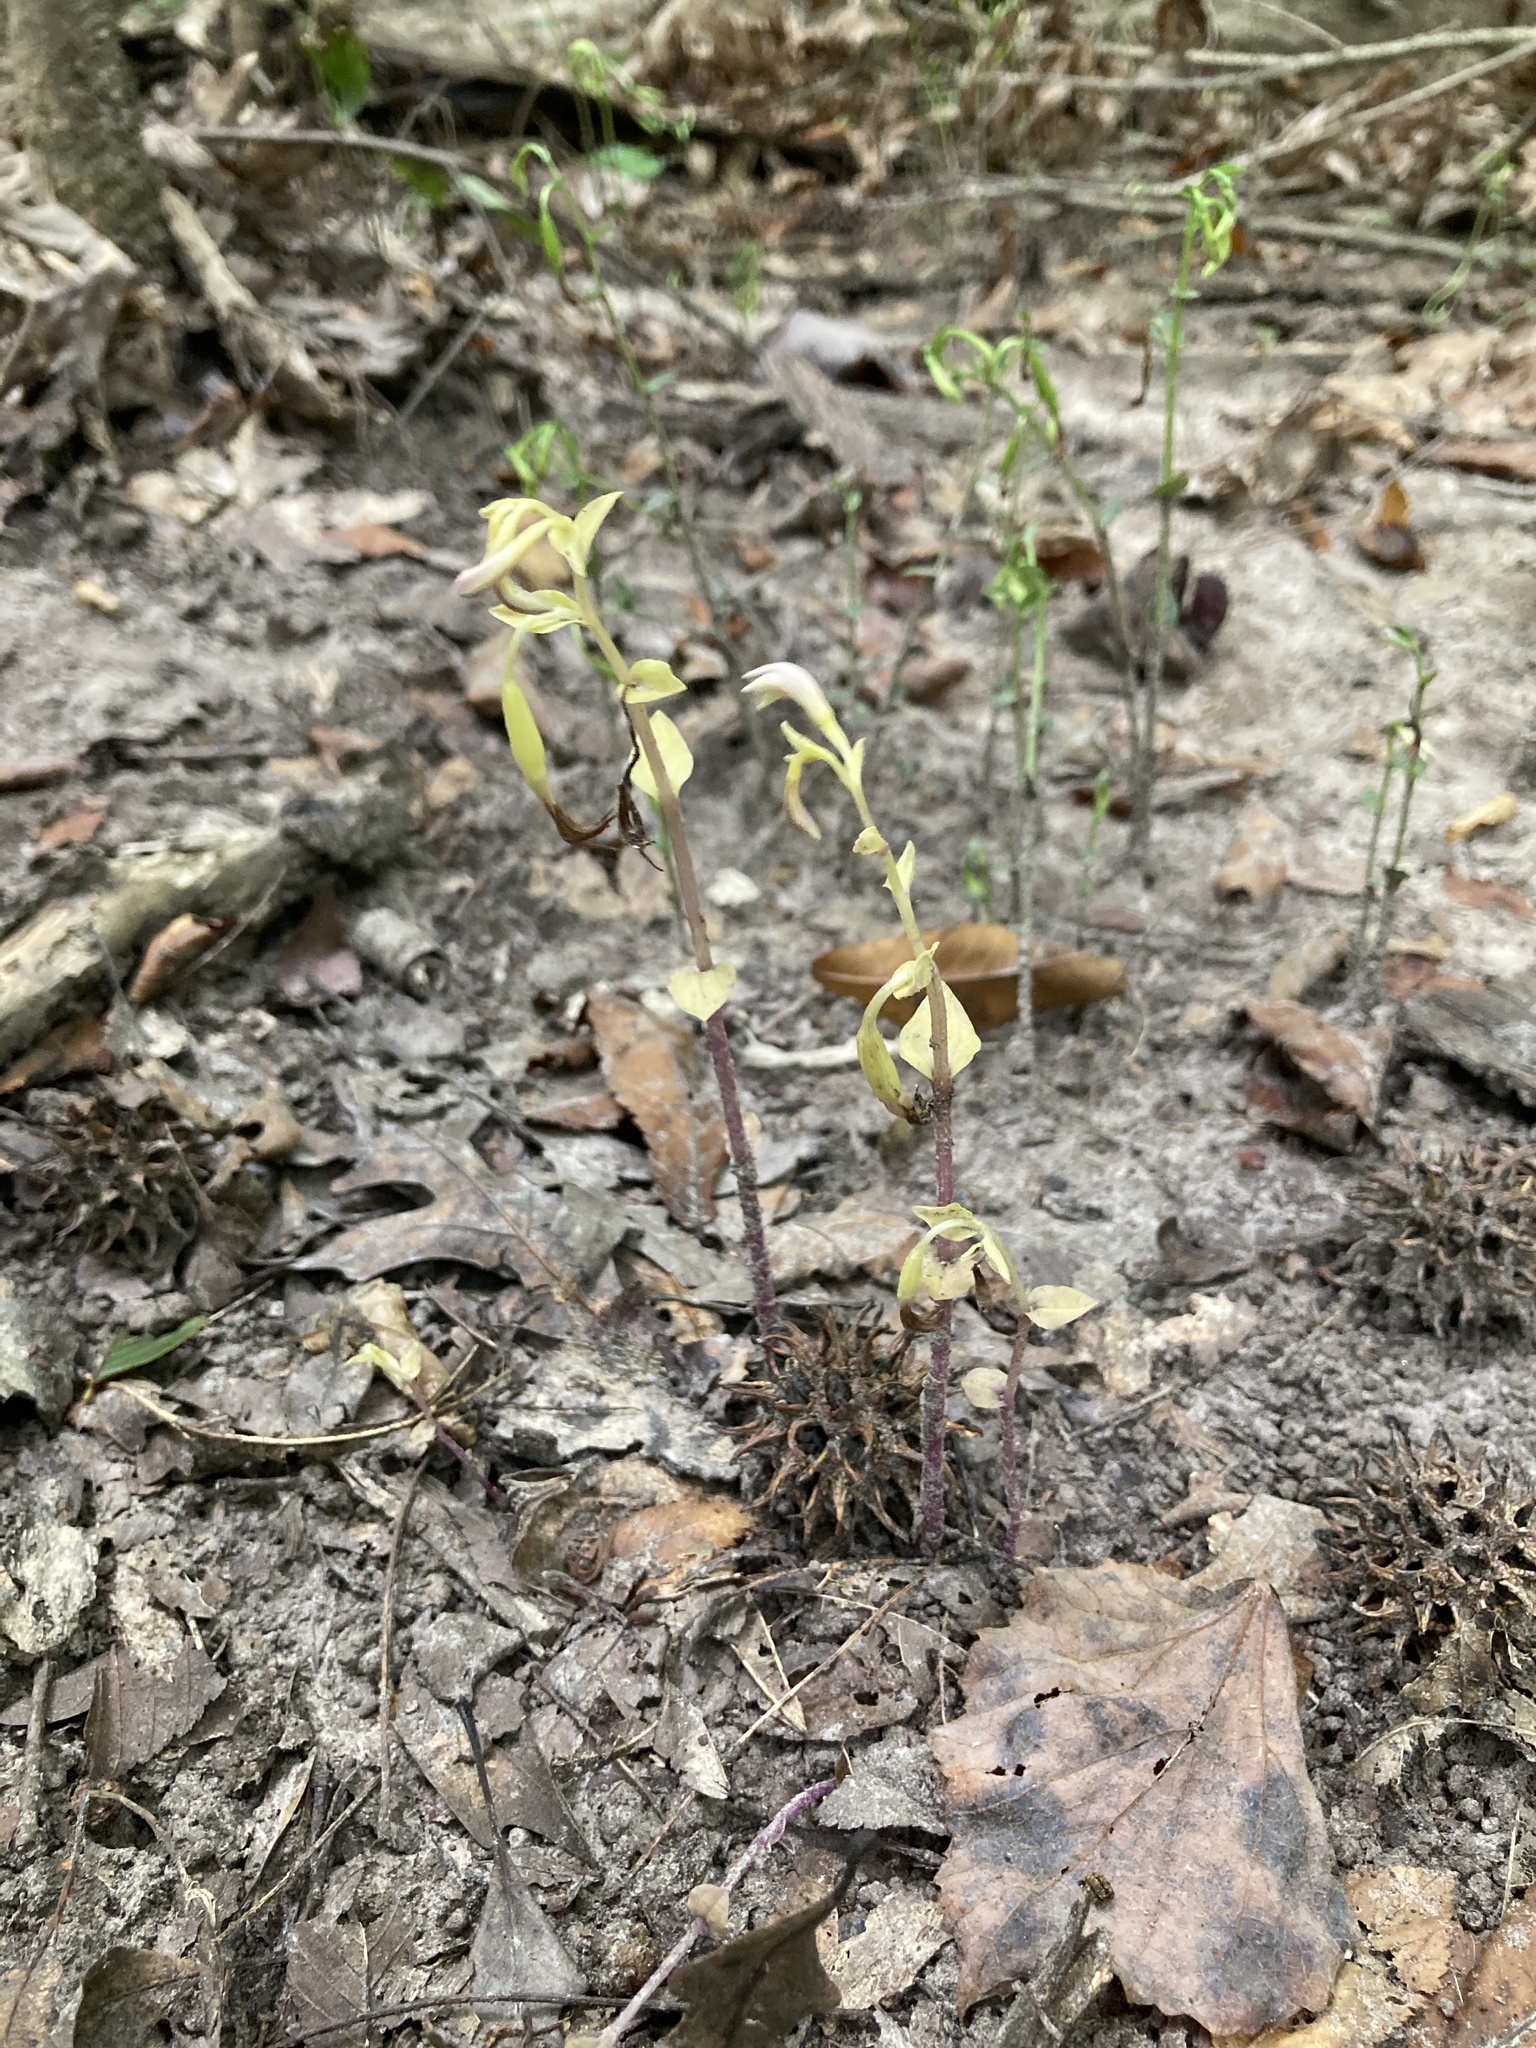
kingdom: Plantae
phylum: Tracheophyta
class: Liliopsida
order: Asparagales
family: Orchidaceae
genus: Triphora
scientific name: Triphora trianthophoros
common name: Three birds orchid
